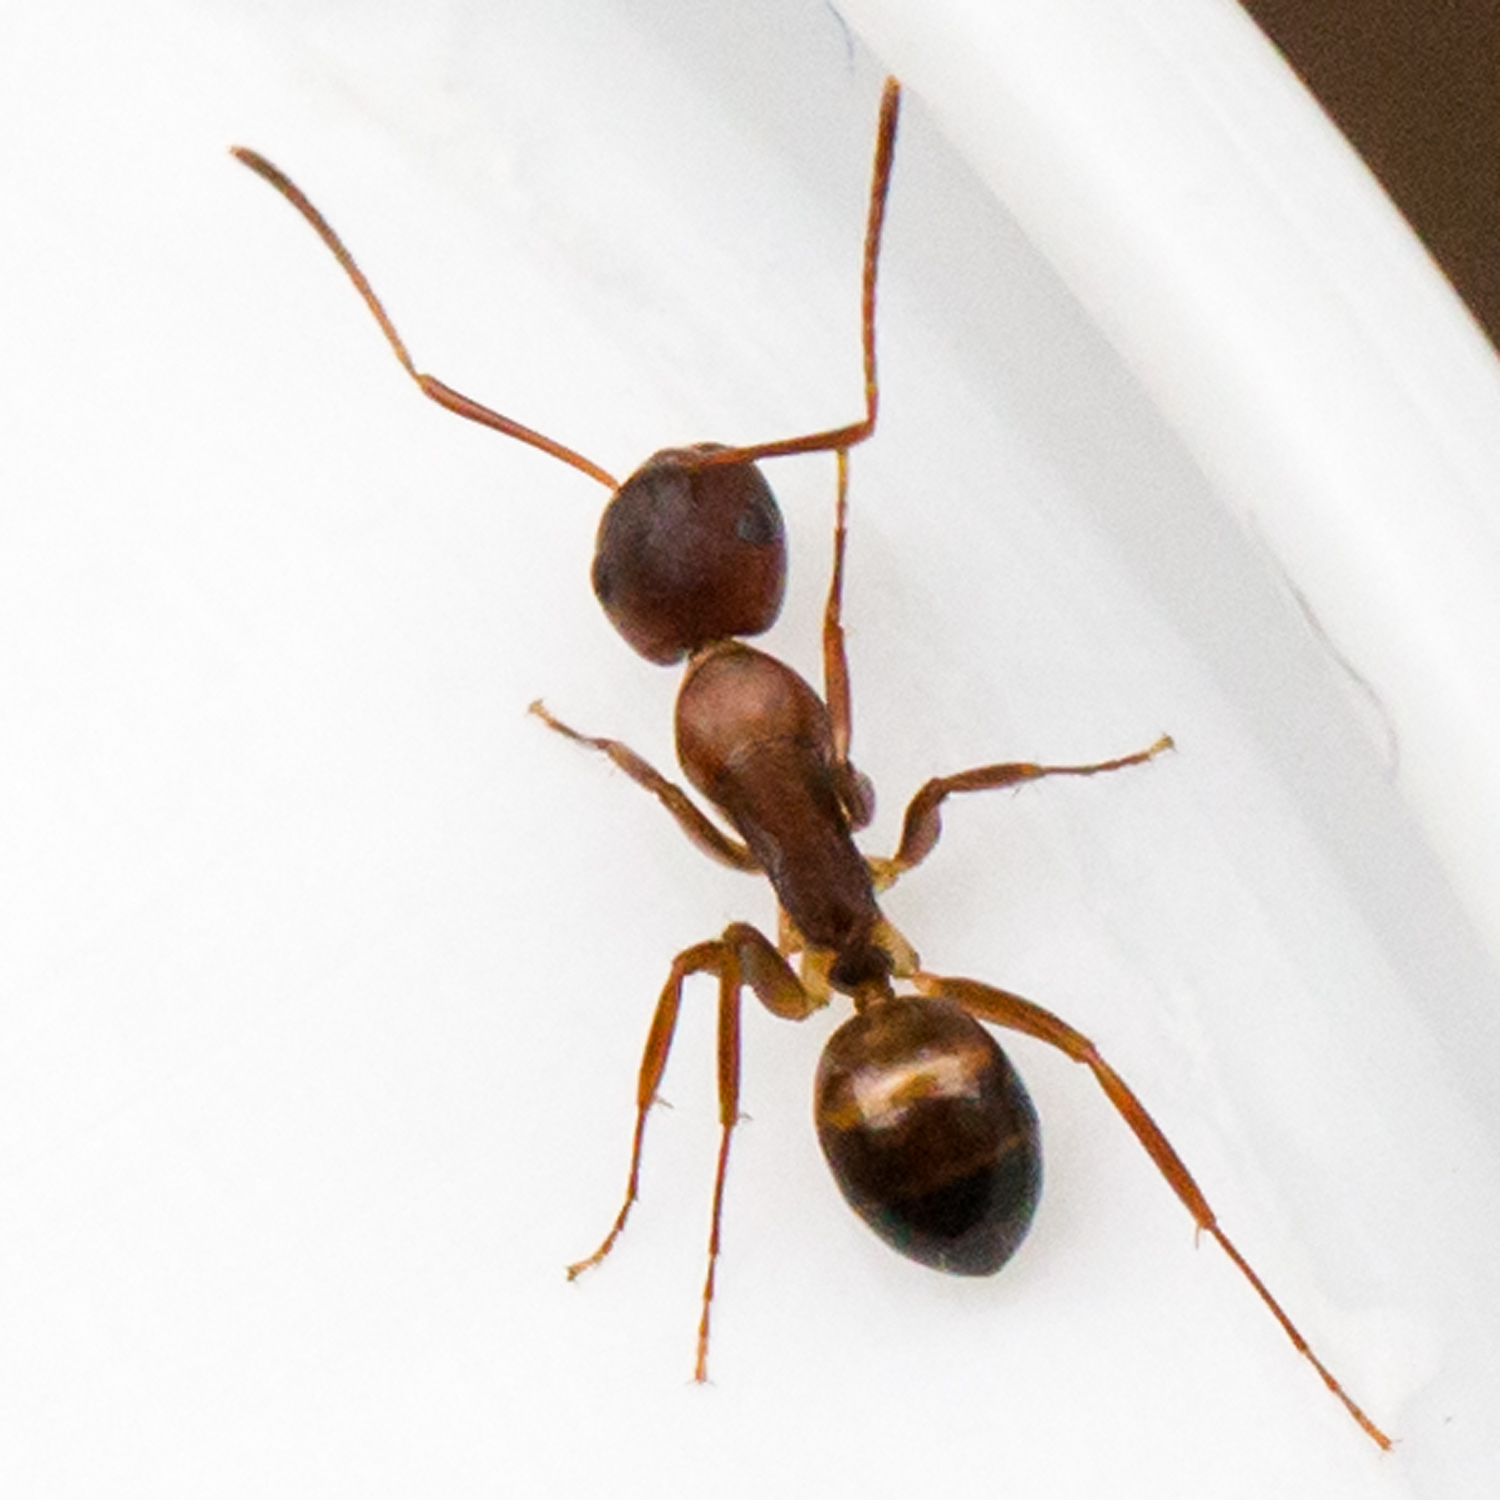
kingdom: Animalia
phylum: Arthropoda
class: Insecta
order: Hymenoptera
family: Formicidae
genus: Camponotus
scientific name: Camponotus subbarbatus
